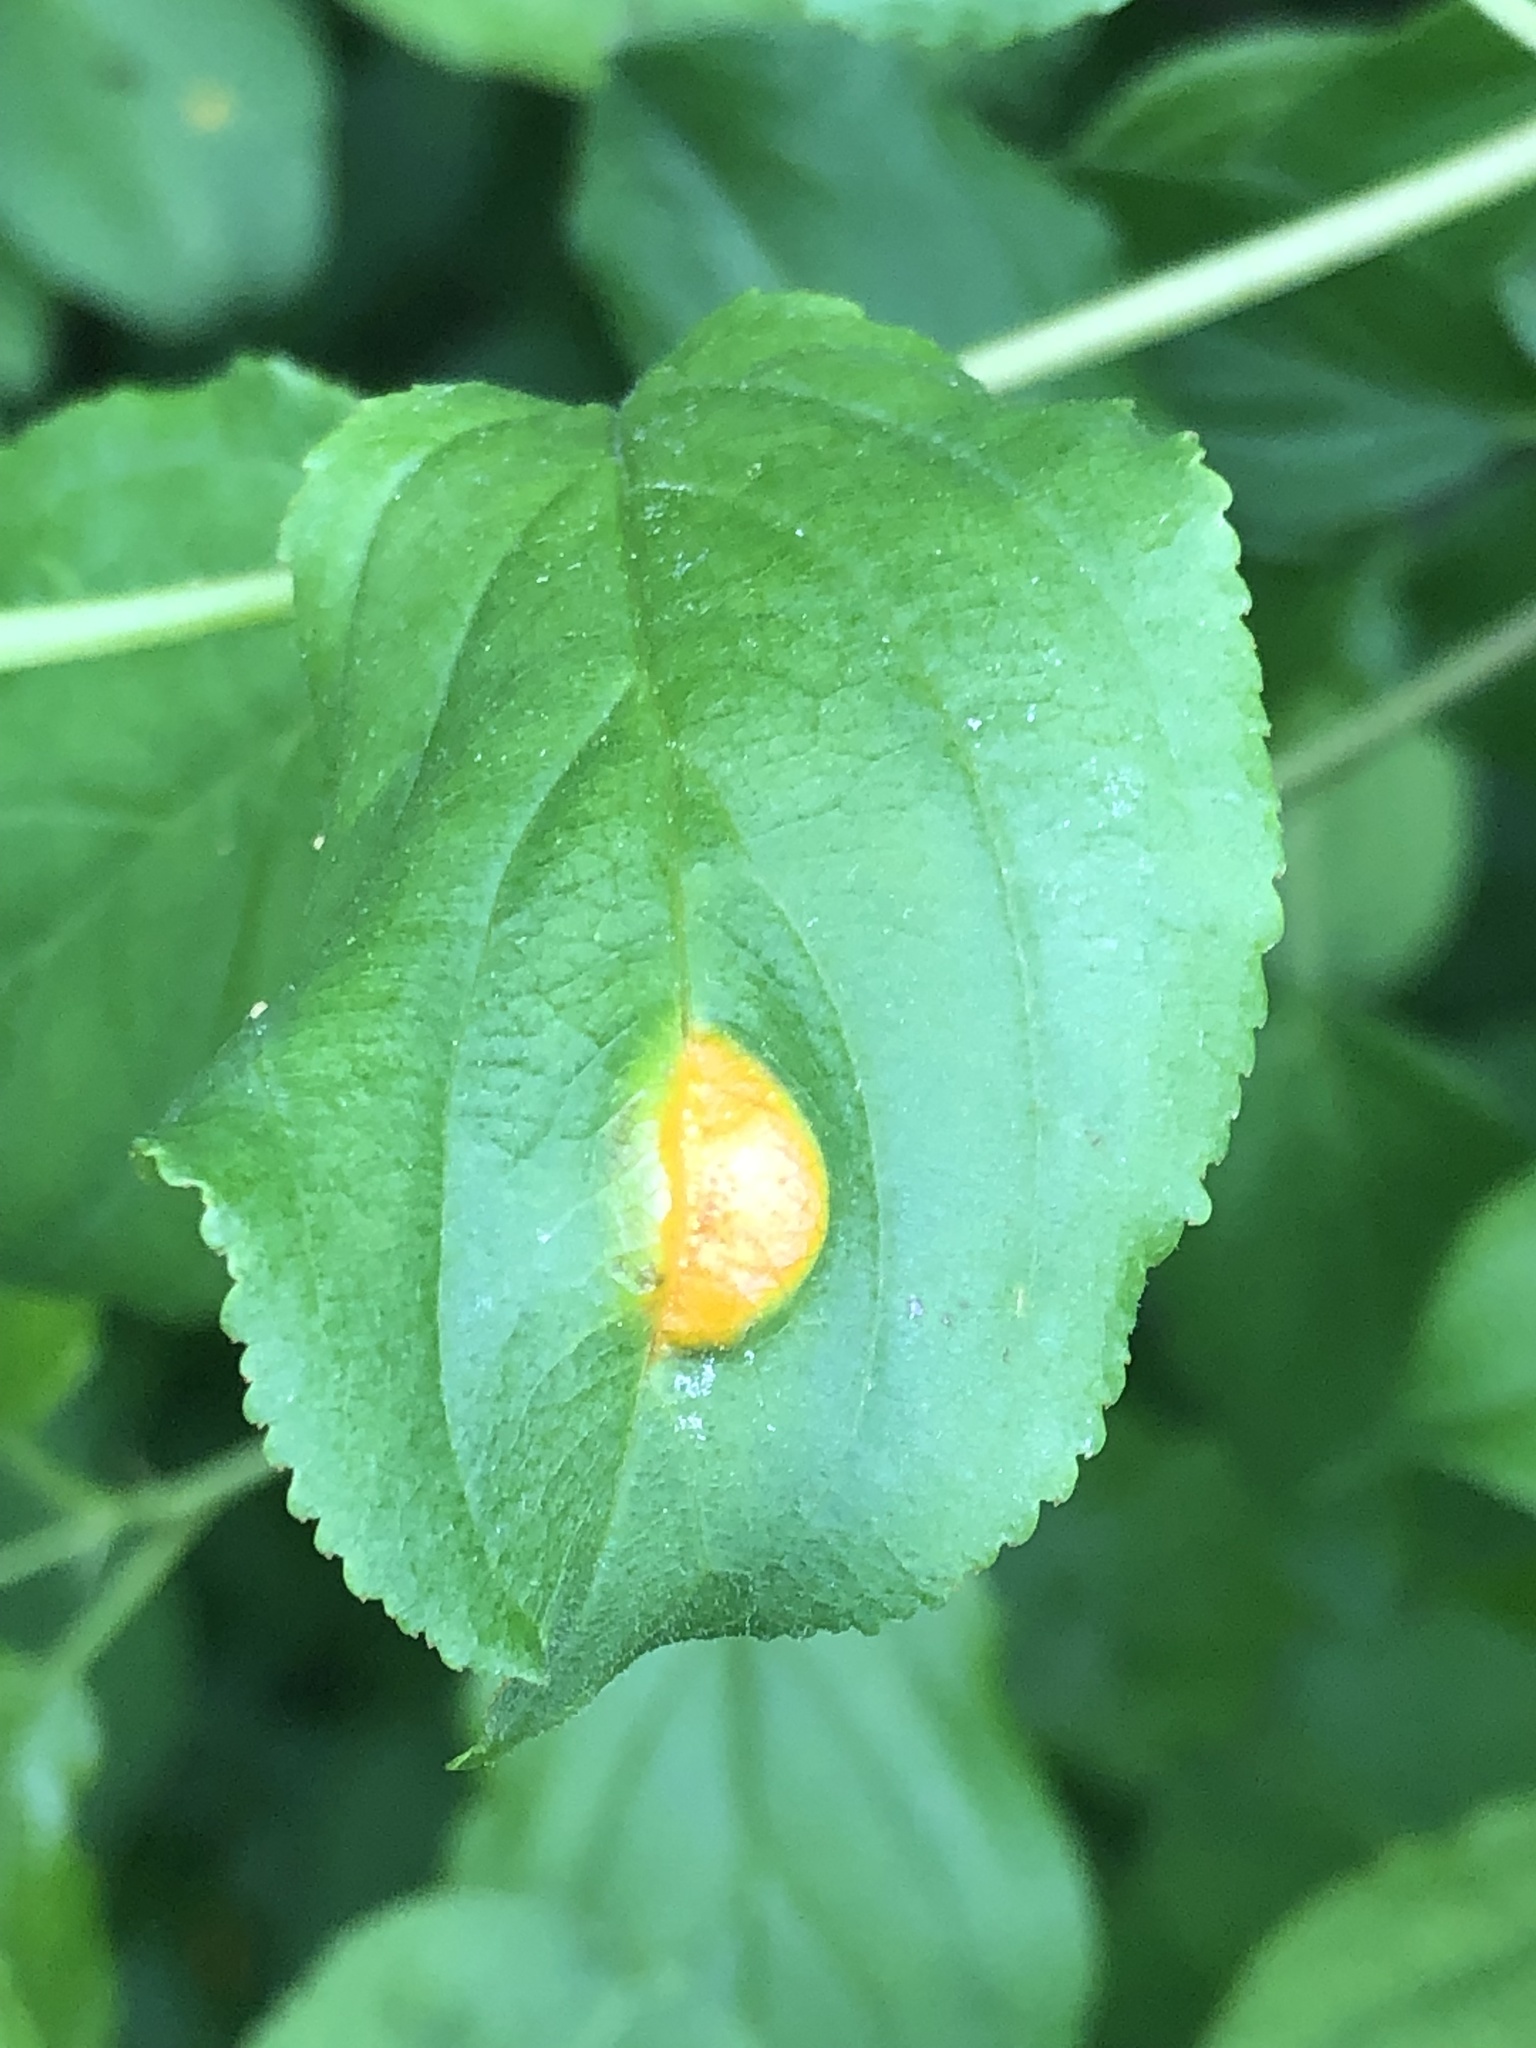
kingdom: Fungi
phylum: Basidiomycota
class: Pucciniomycetes
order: Pucciniales
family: Pucciniaceae
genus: Puccinia
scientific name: Puccinia coronata
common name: Crown rust
